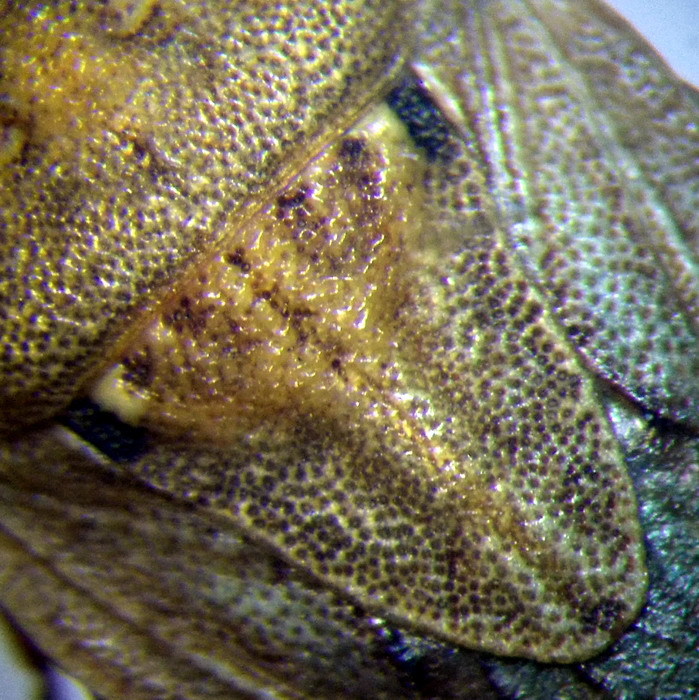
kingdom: Animalia
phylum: Arthropoda
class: Insecta
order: Hemiptera
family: Pentatomidae
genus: Sciocoris
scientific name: Sciocoris sulcatus
